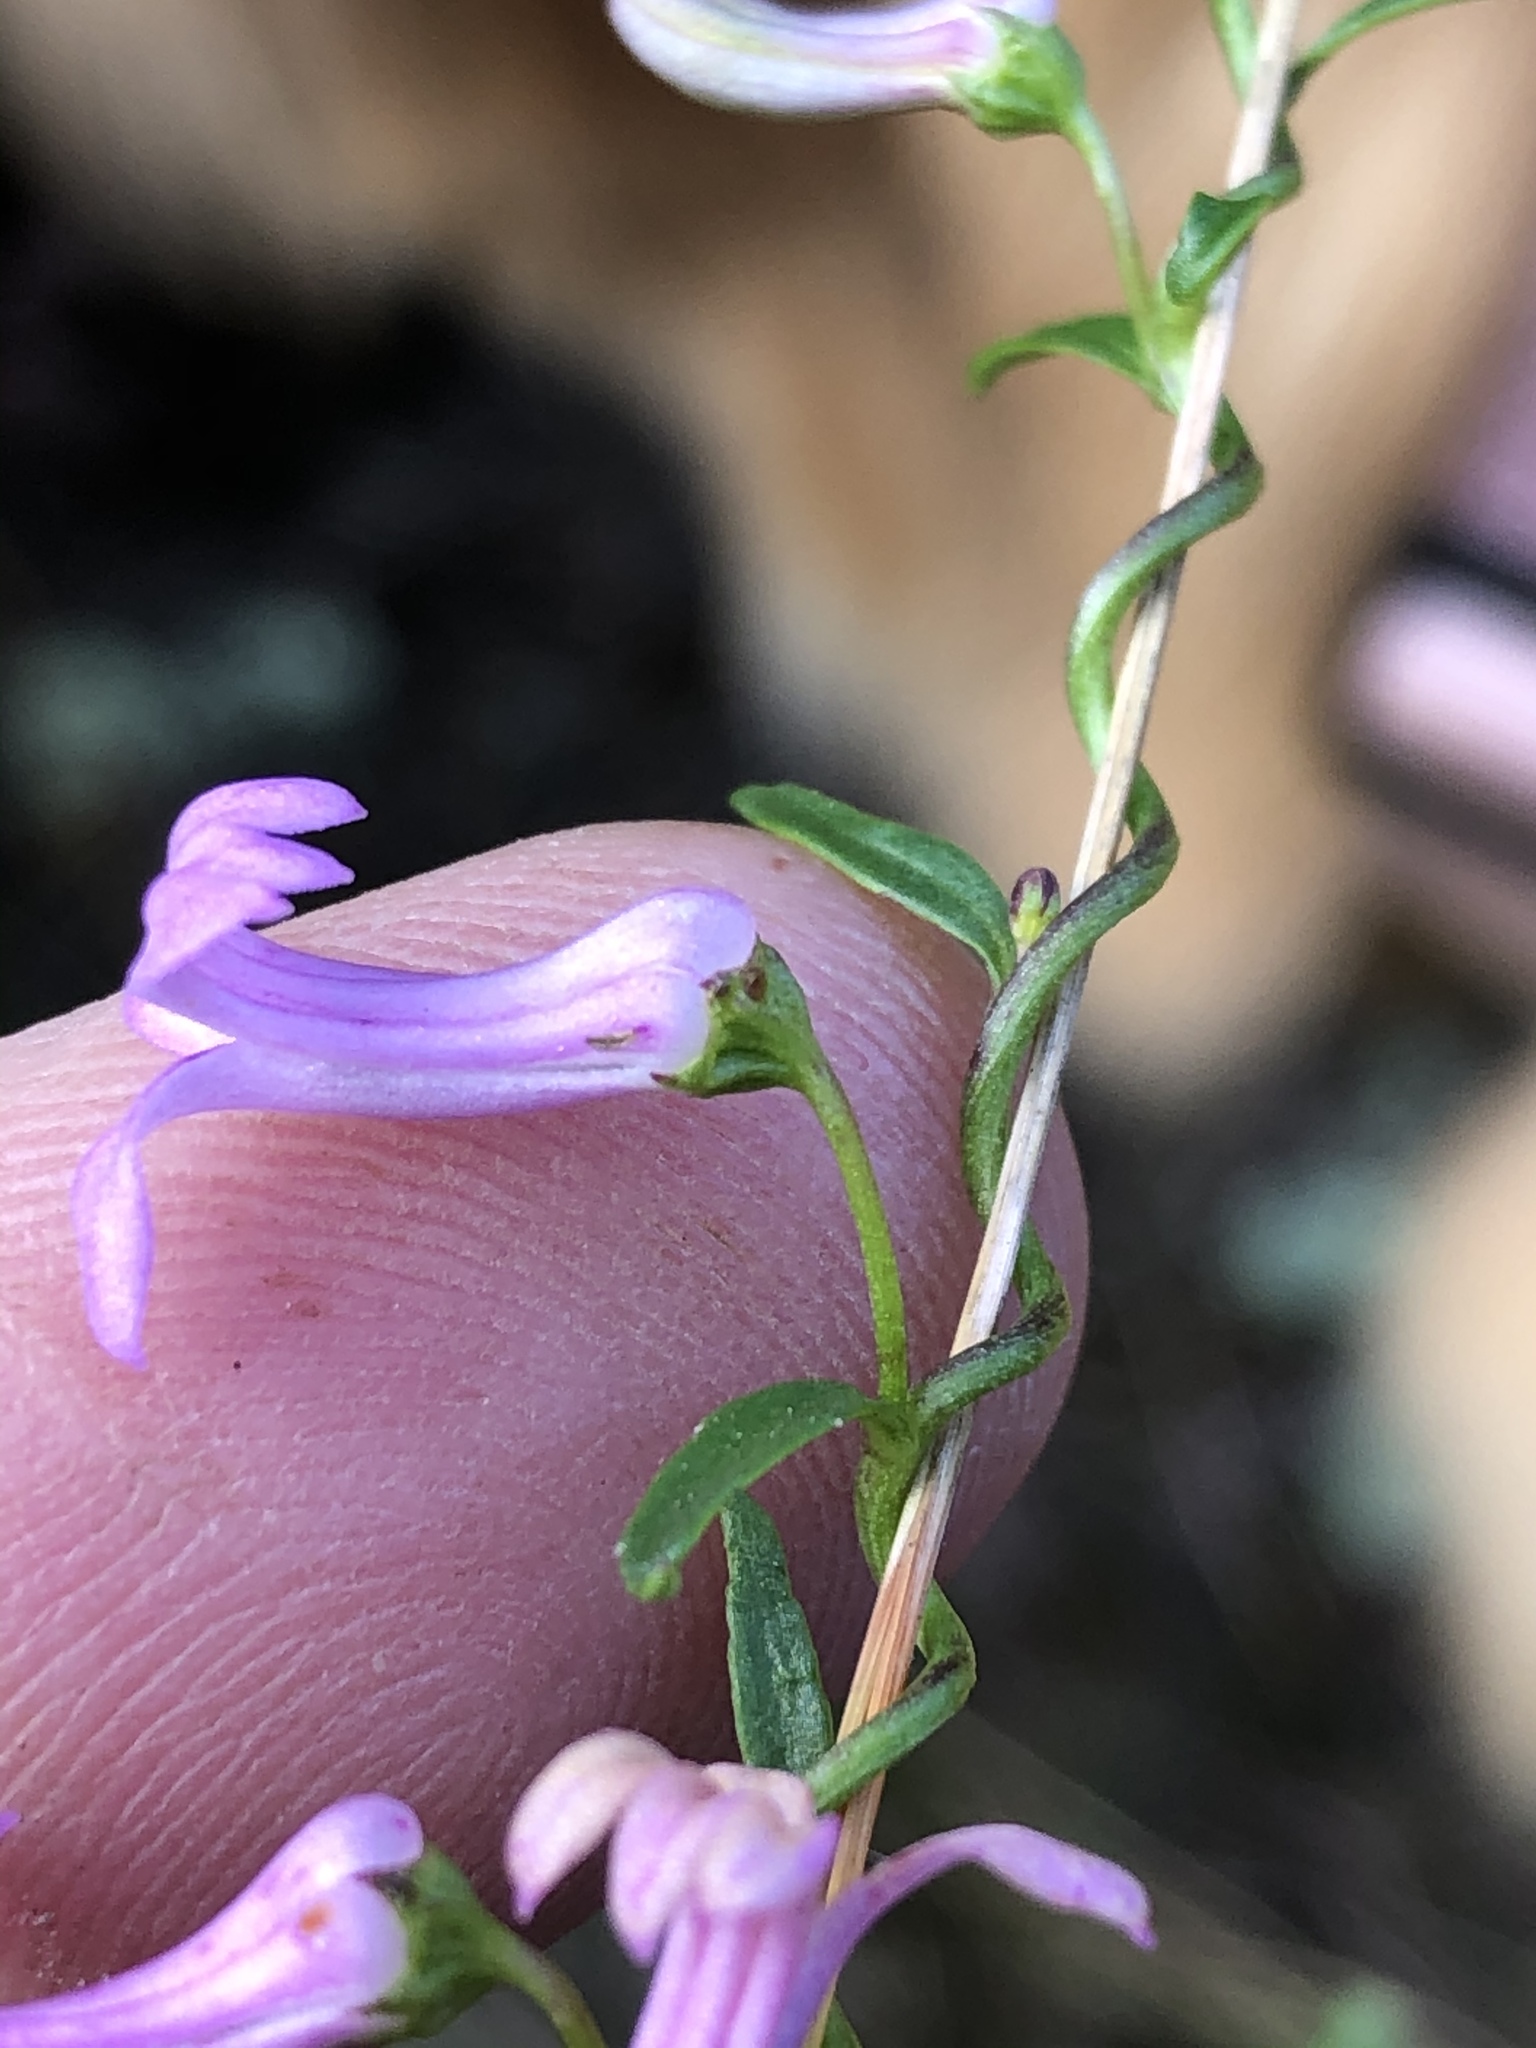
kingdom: Plantae
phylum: Tracheophyta
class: Magnoliopsida
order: Asterales
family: Campanulaceae
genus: Cyphia
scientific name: Cyphia digitata
